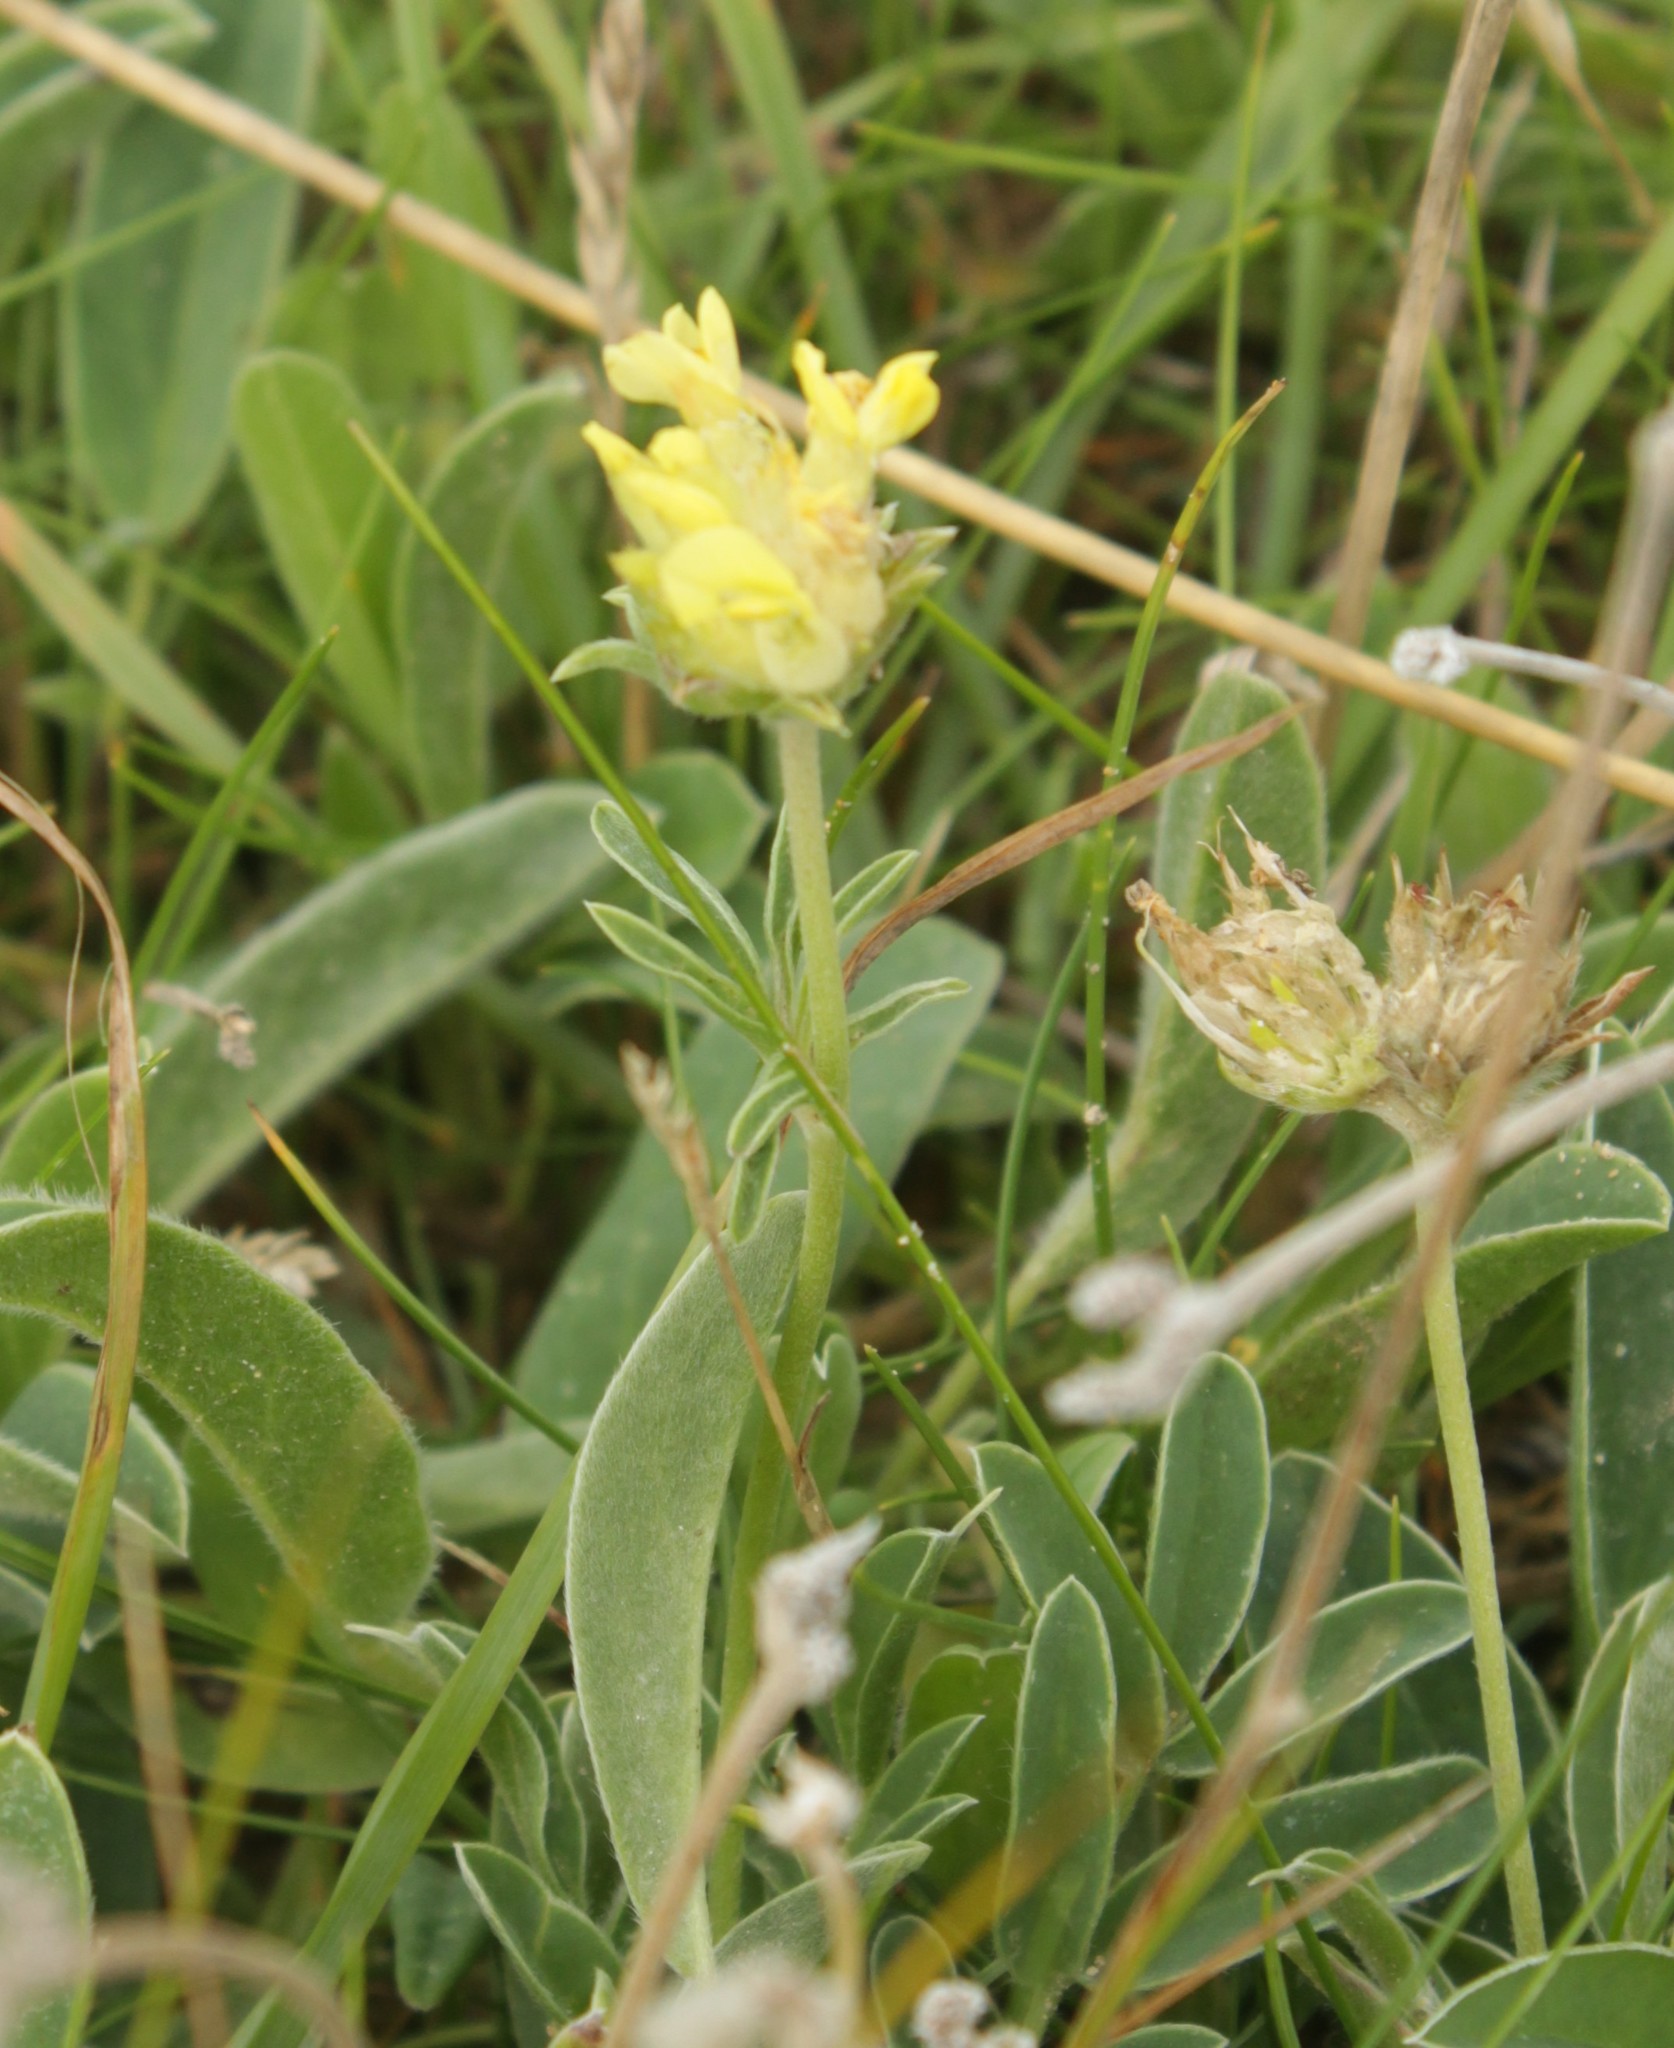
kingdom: Plantae
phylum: Tracheophyta
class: Magnoliopsida
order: Fabales
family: Fabaceae
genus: Anthyllis
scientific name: Anthyllis vulneraria
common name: Kidney vetch
